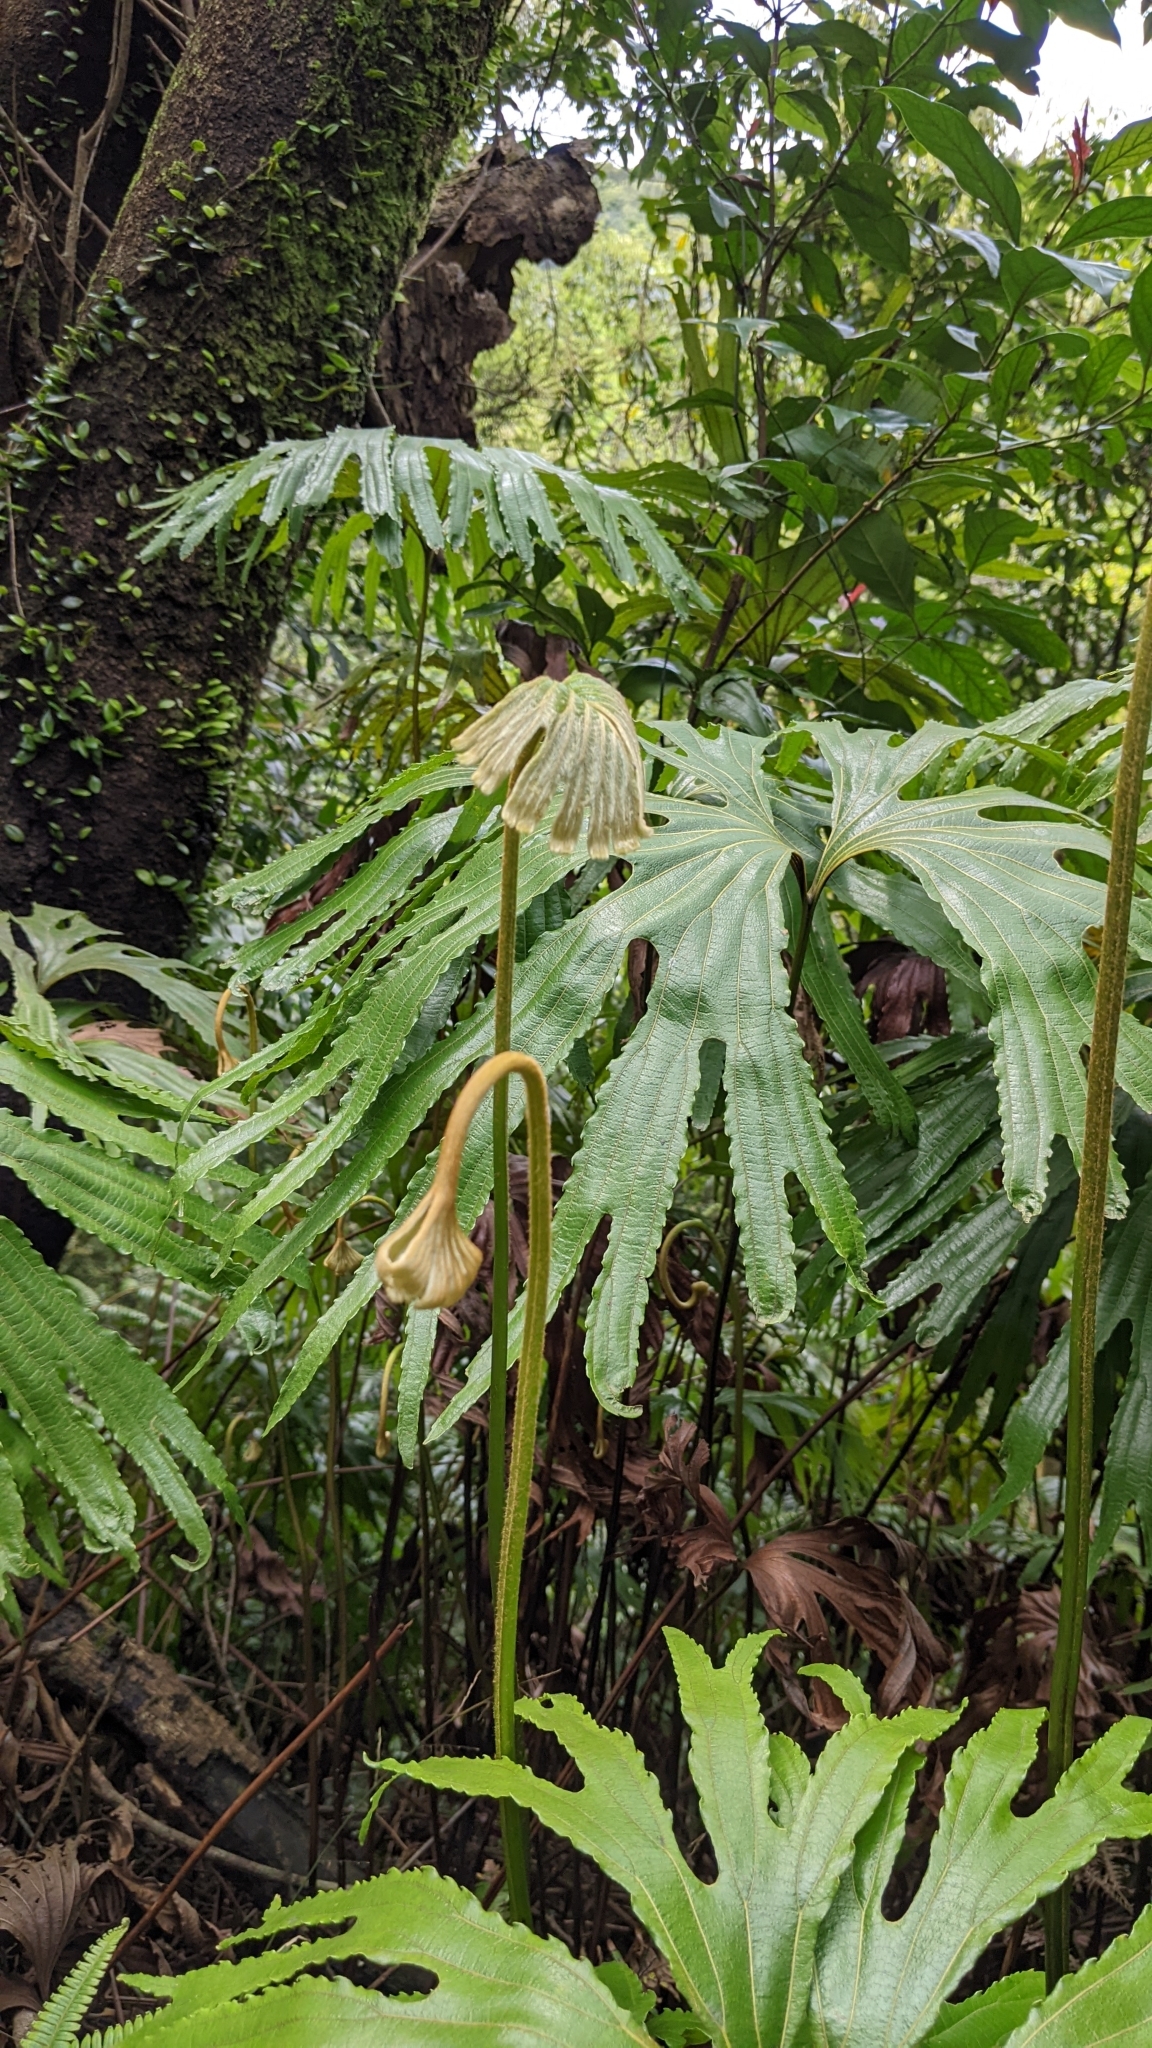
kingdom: Plantae
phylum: Tracheophyta
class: Polypodiopsida
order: Gleicheniales
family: Dipteridaceae
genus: Dipteris
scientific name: Dipteris conjugata
